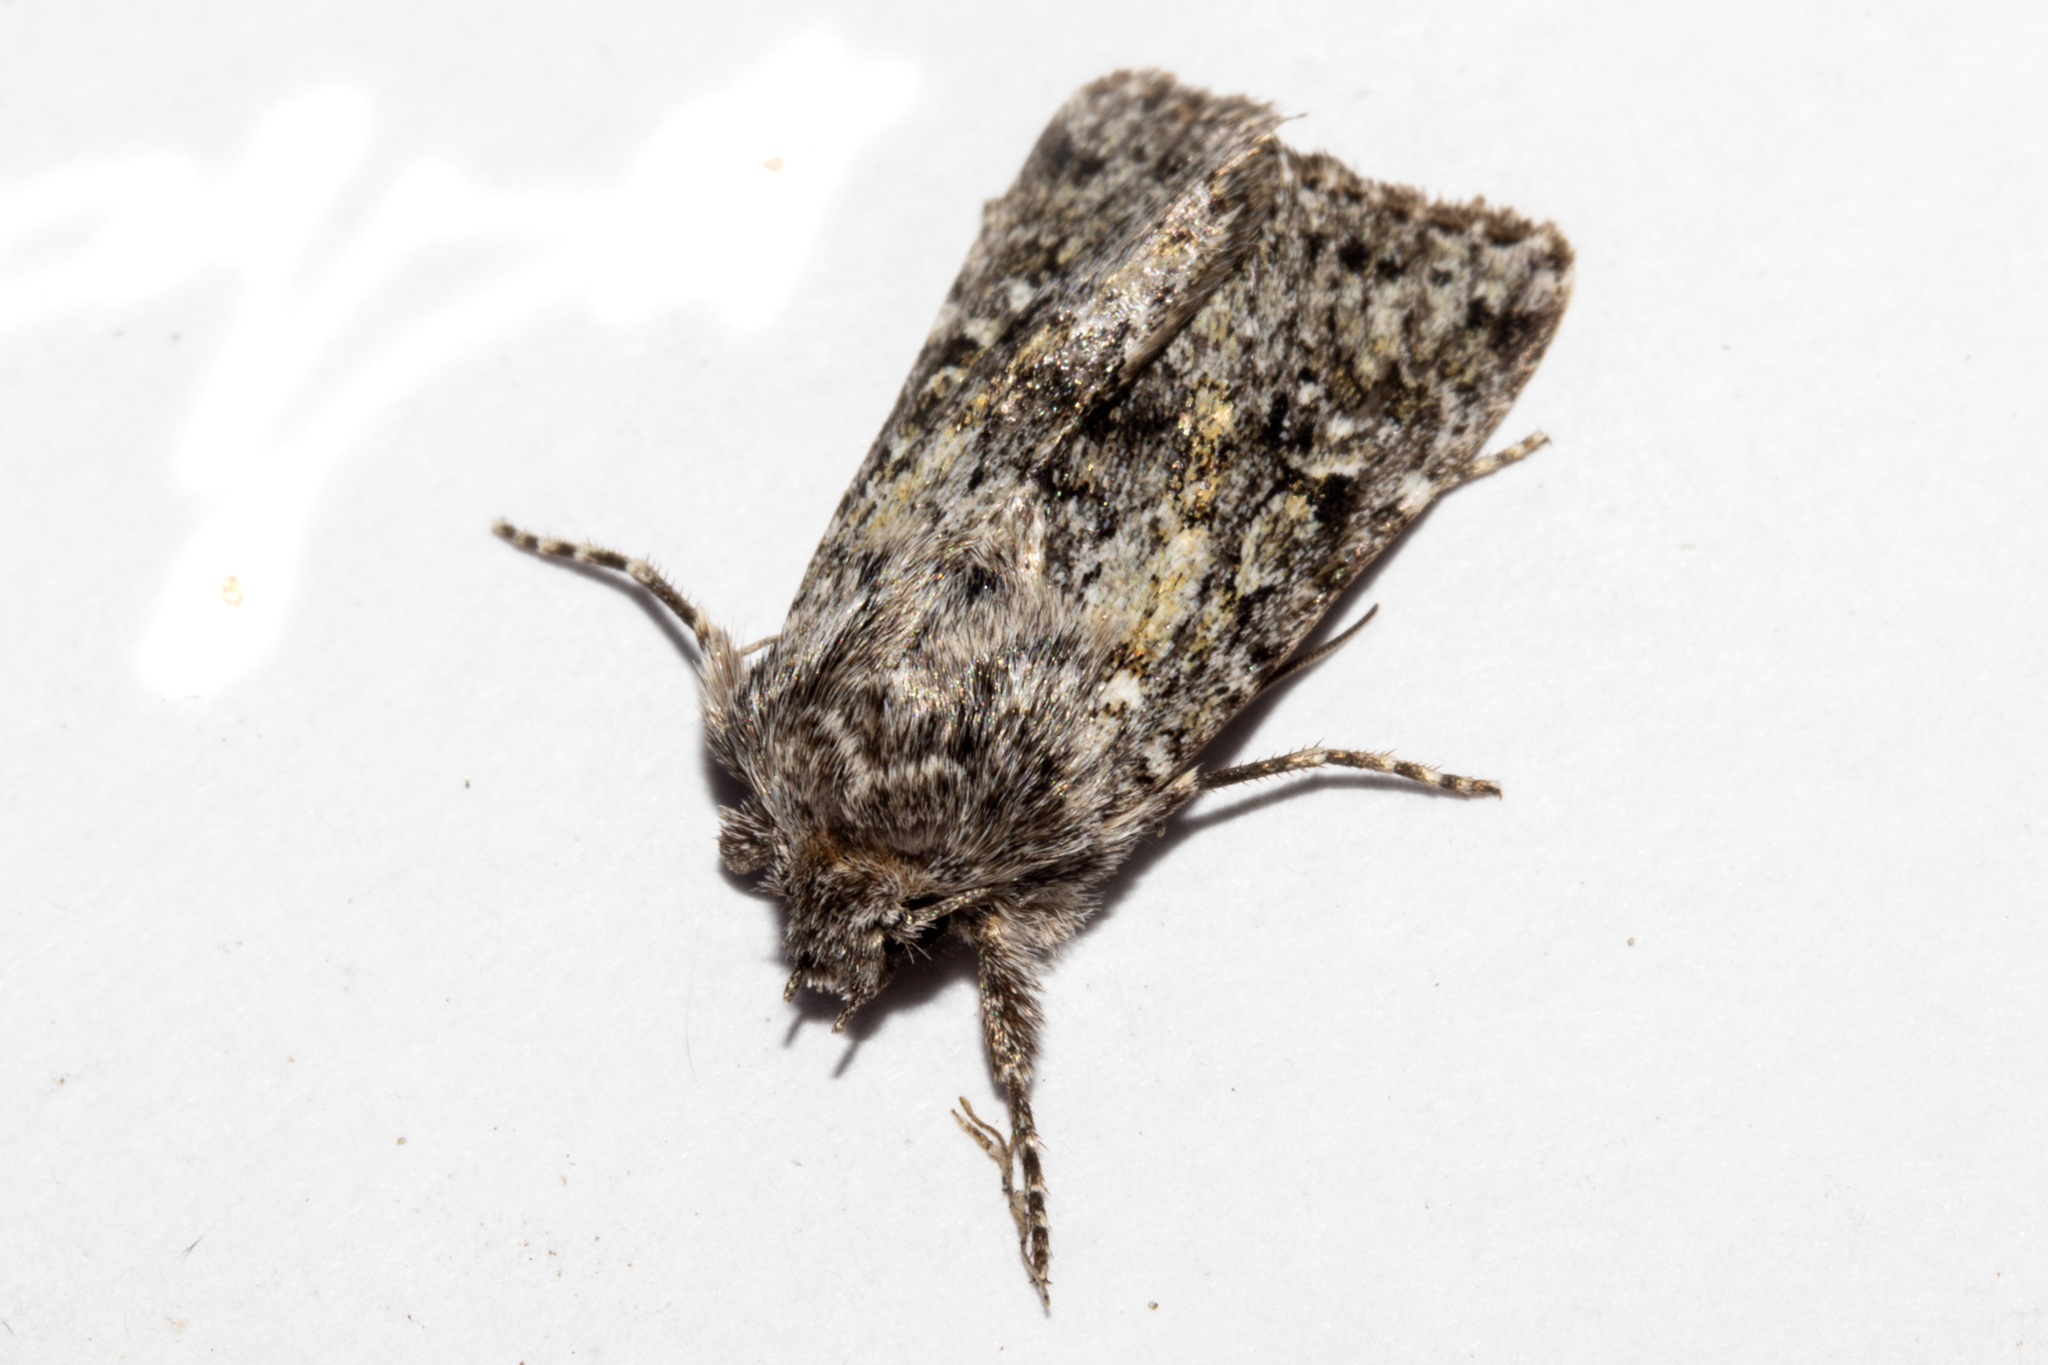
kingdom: Animalia
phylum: Arthropoda
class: Insecta
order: Lepidoptera
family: Noctuidae
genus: Physetica
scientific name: Physetica cucullina
